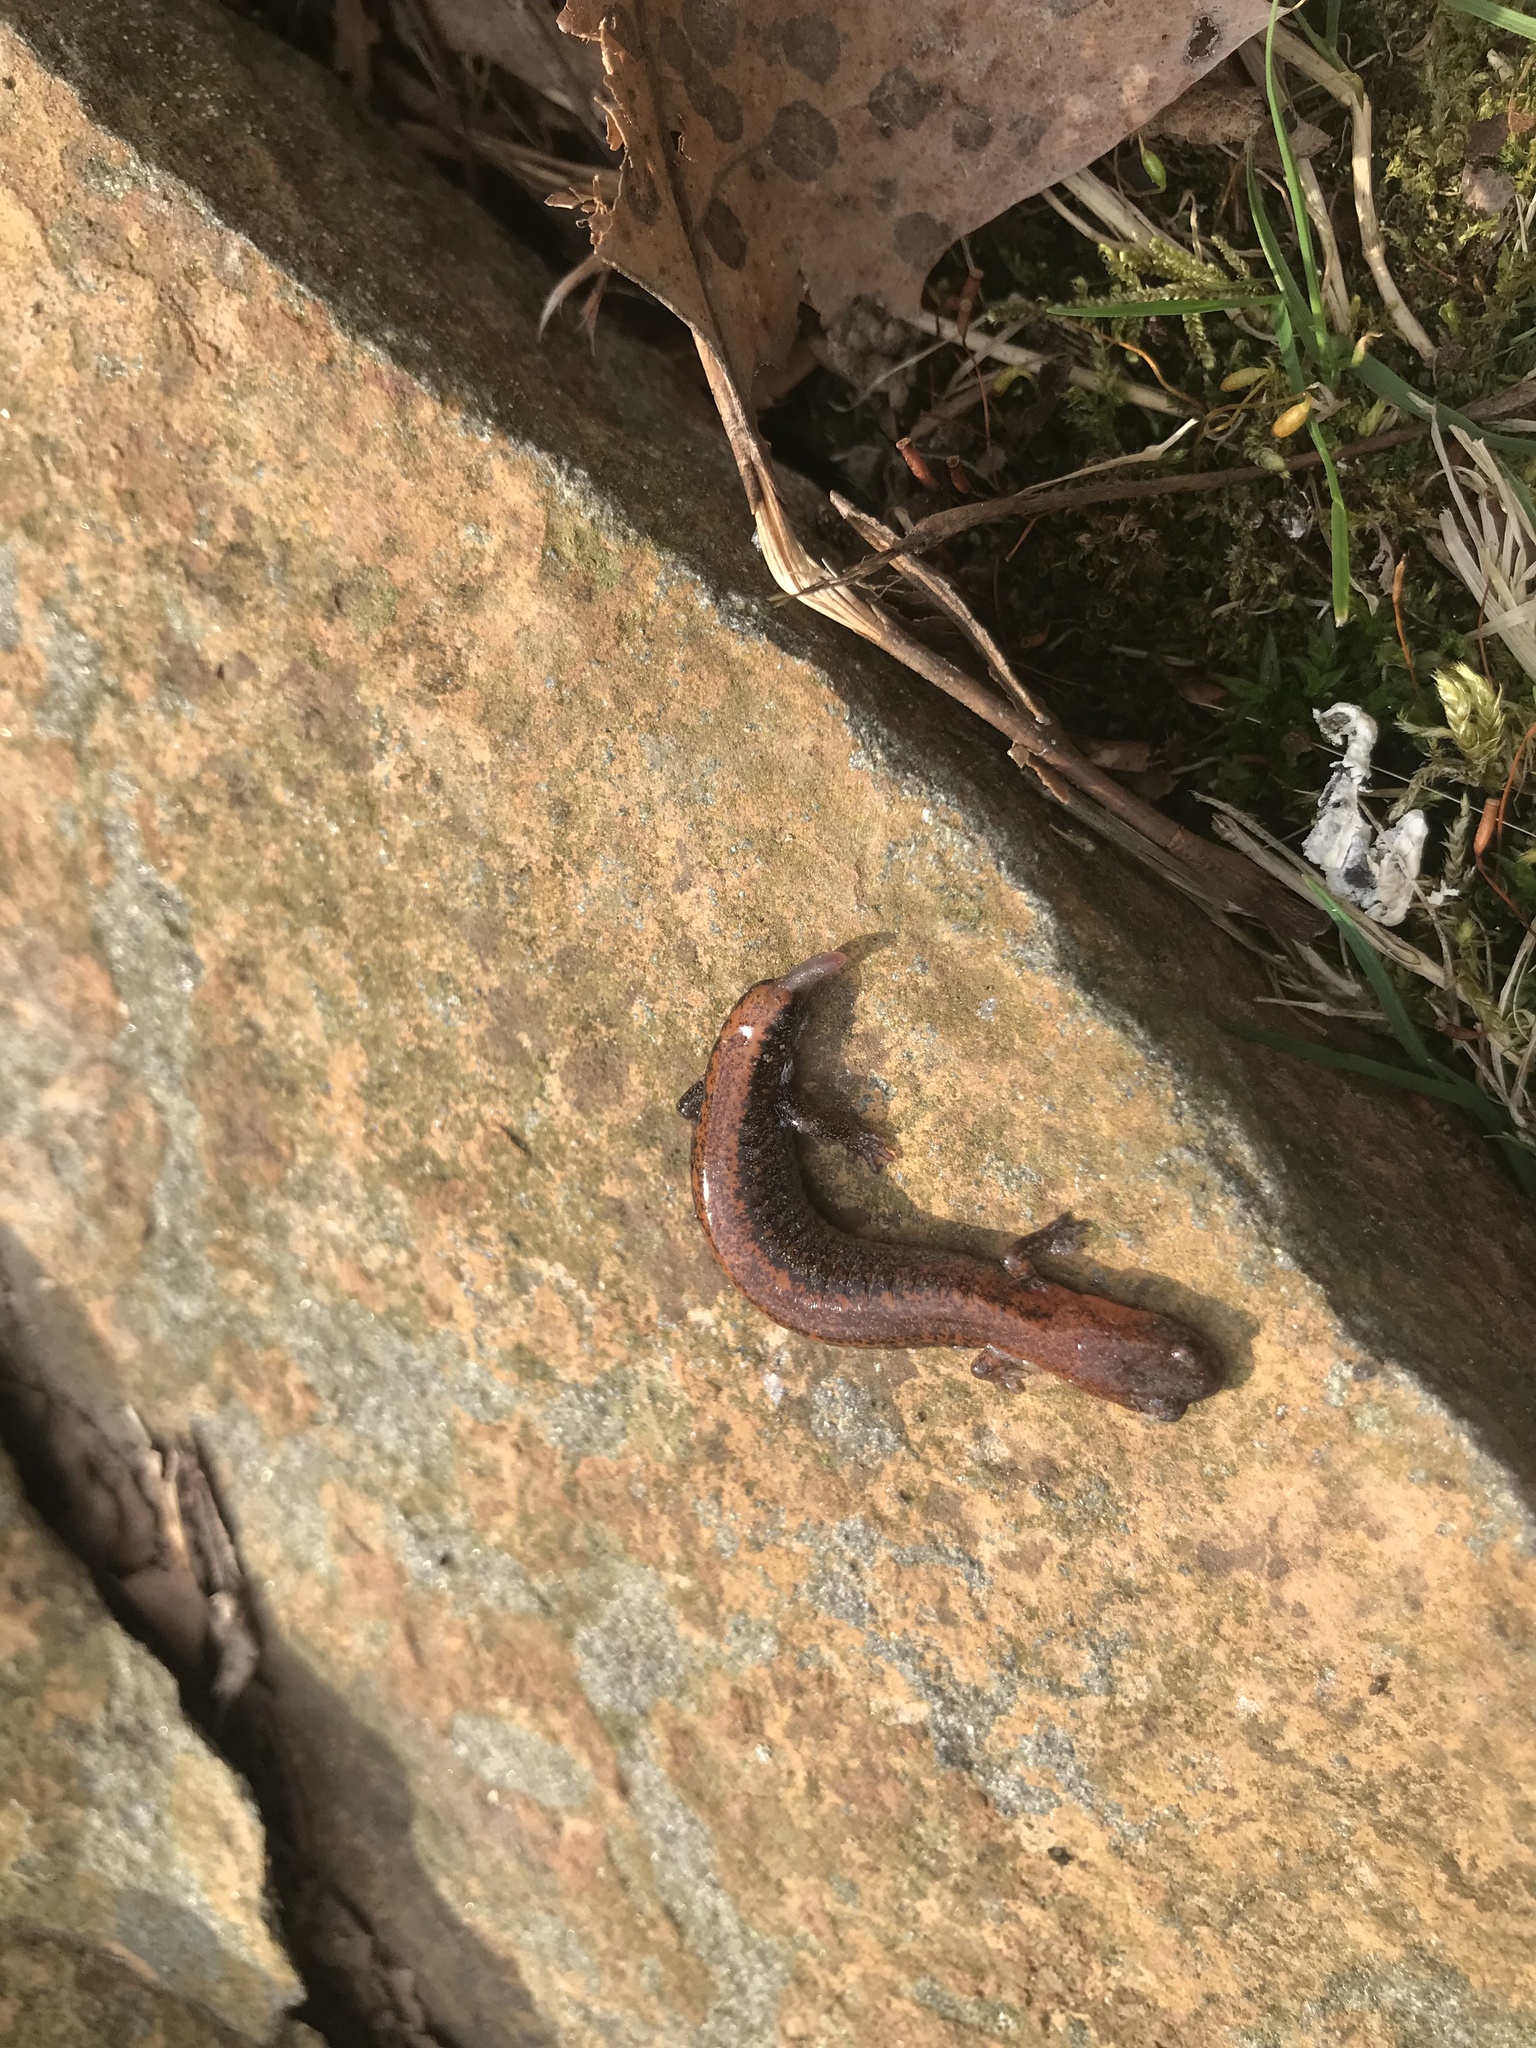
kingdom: Animalia
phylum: Chordata
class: Amphibia
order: Caudata
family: Plethodontidae
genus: Plethodon
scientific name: Plethodon cinereus
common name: Redback salamander
